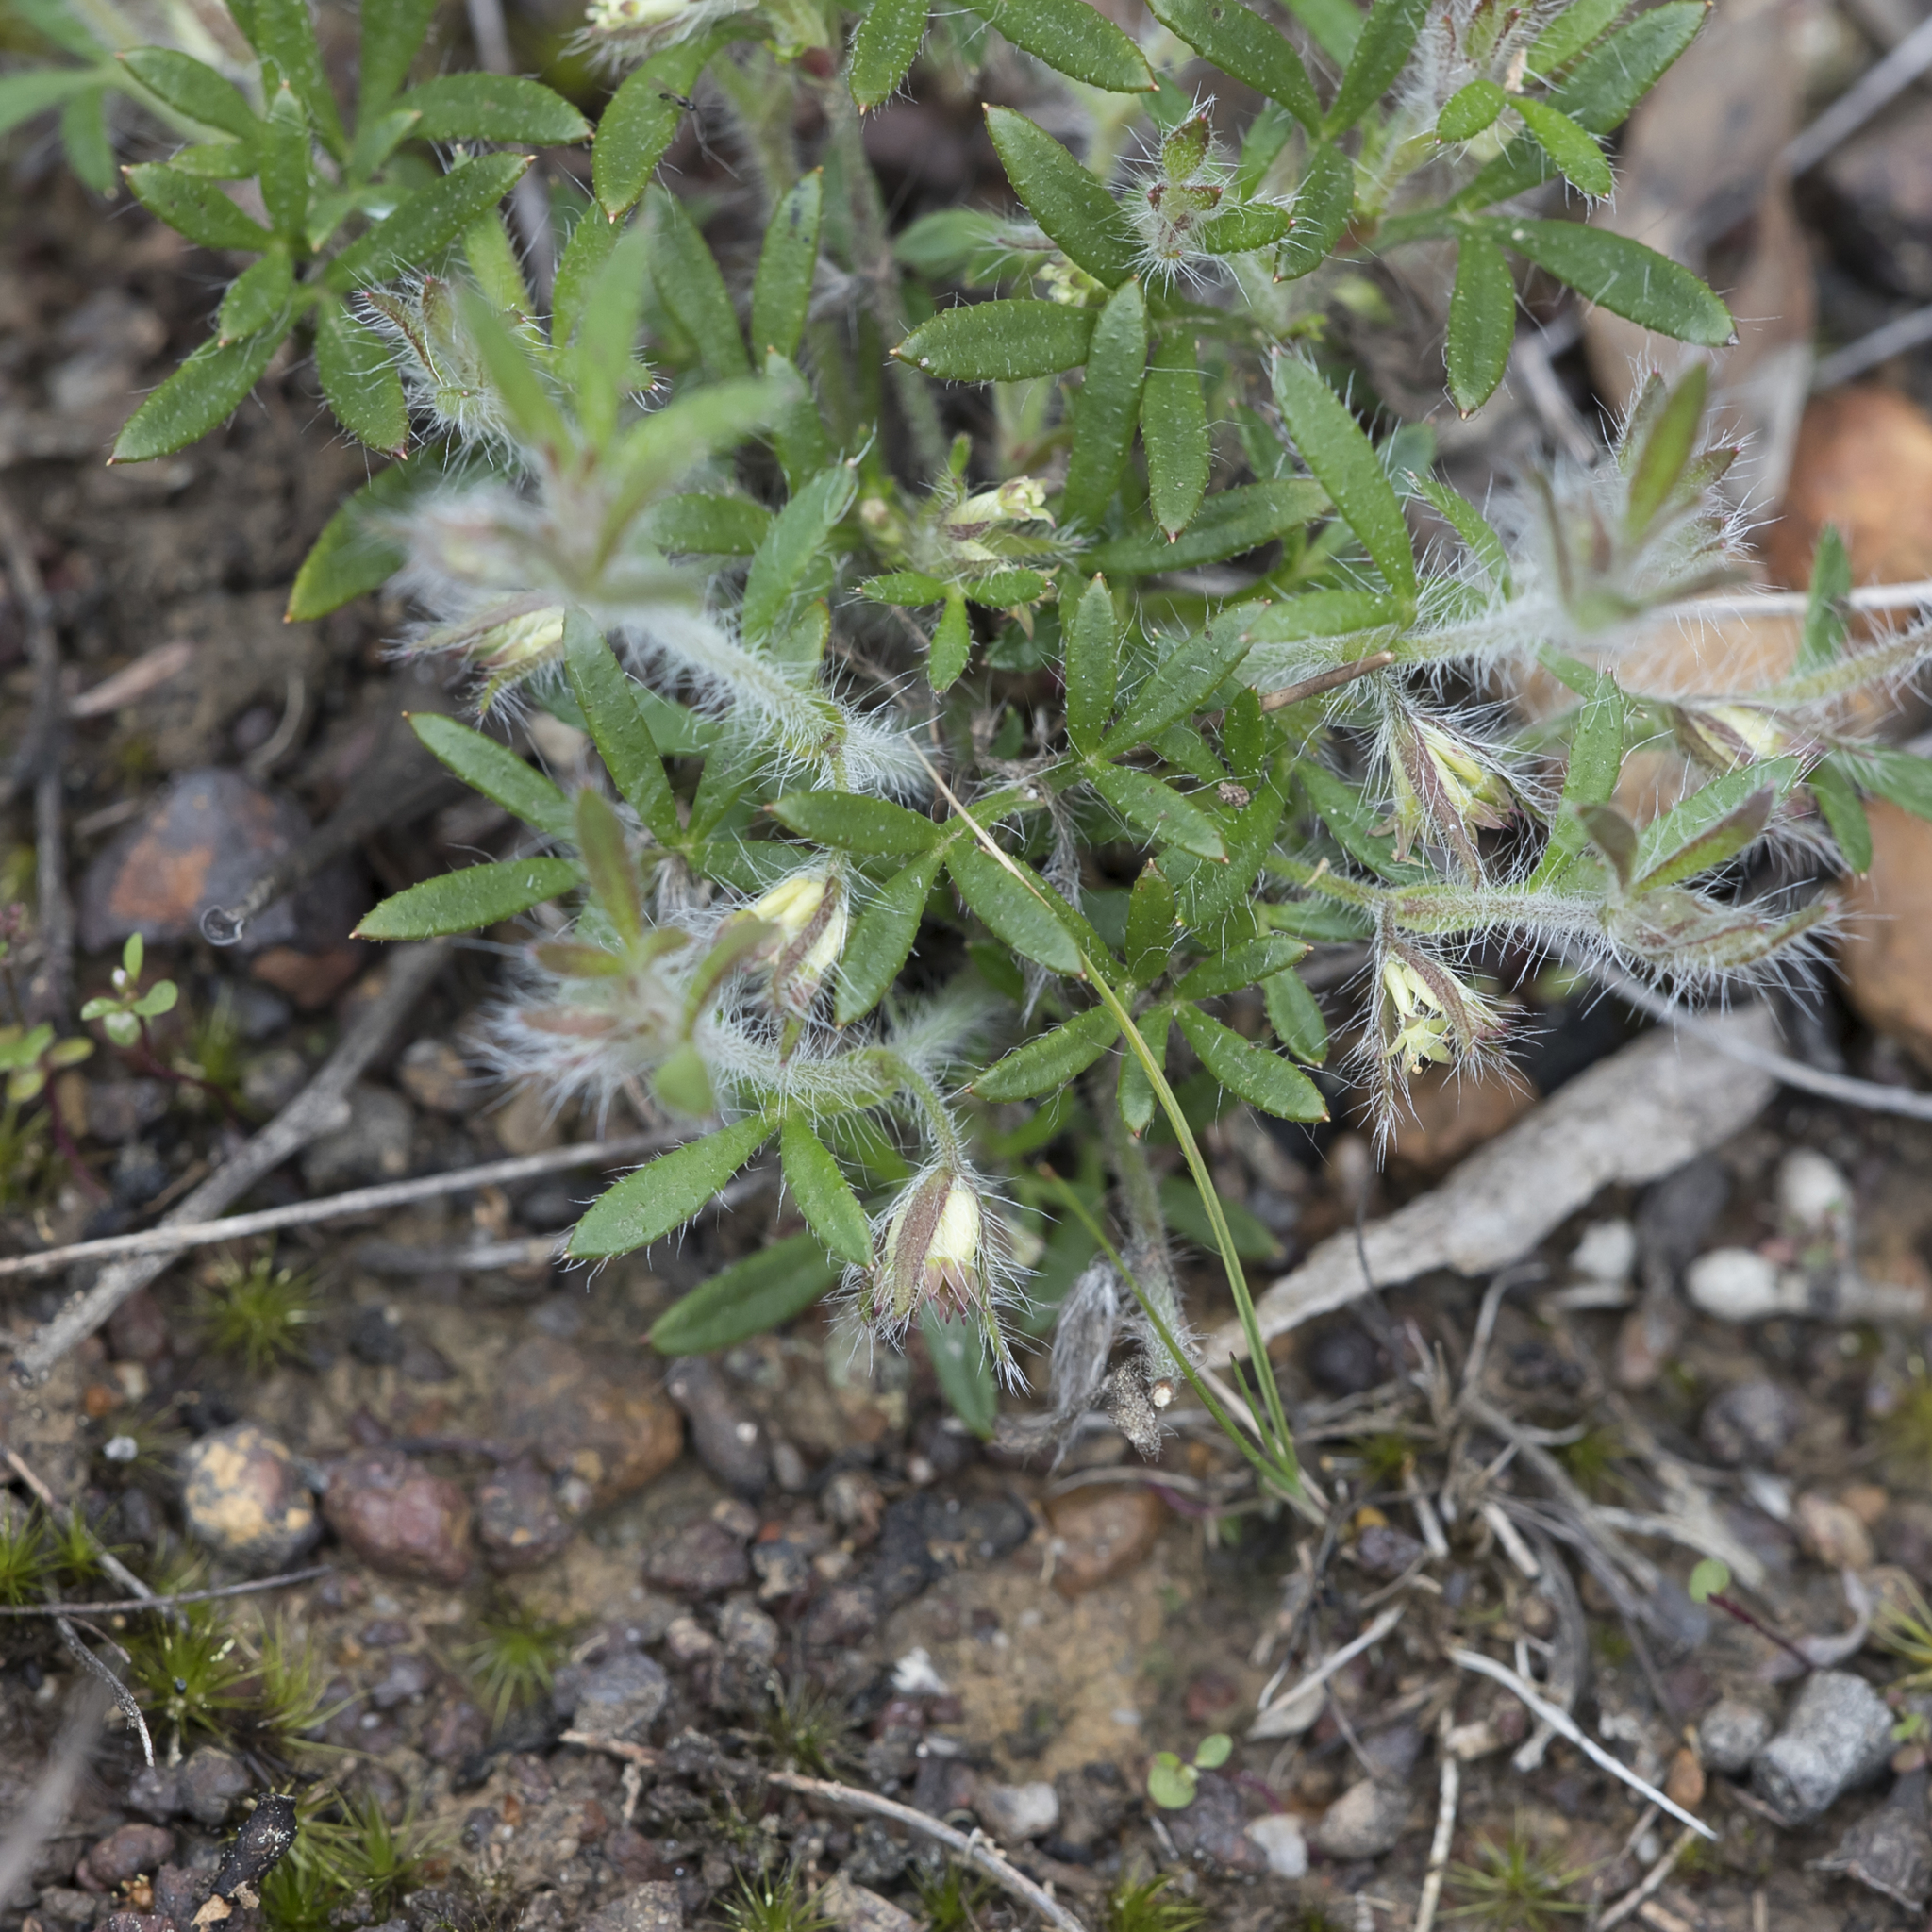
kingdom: Plantae
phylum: Tracheophyta
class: Magnoliopsida
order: Apiales
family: Apiaceae
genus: Xanthosia
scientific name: Xanthosia huegelii
